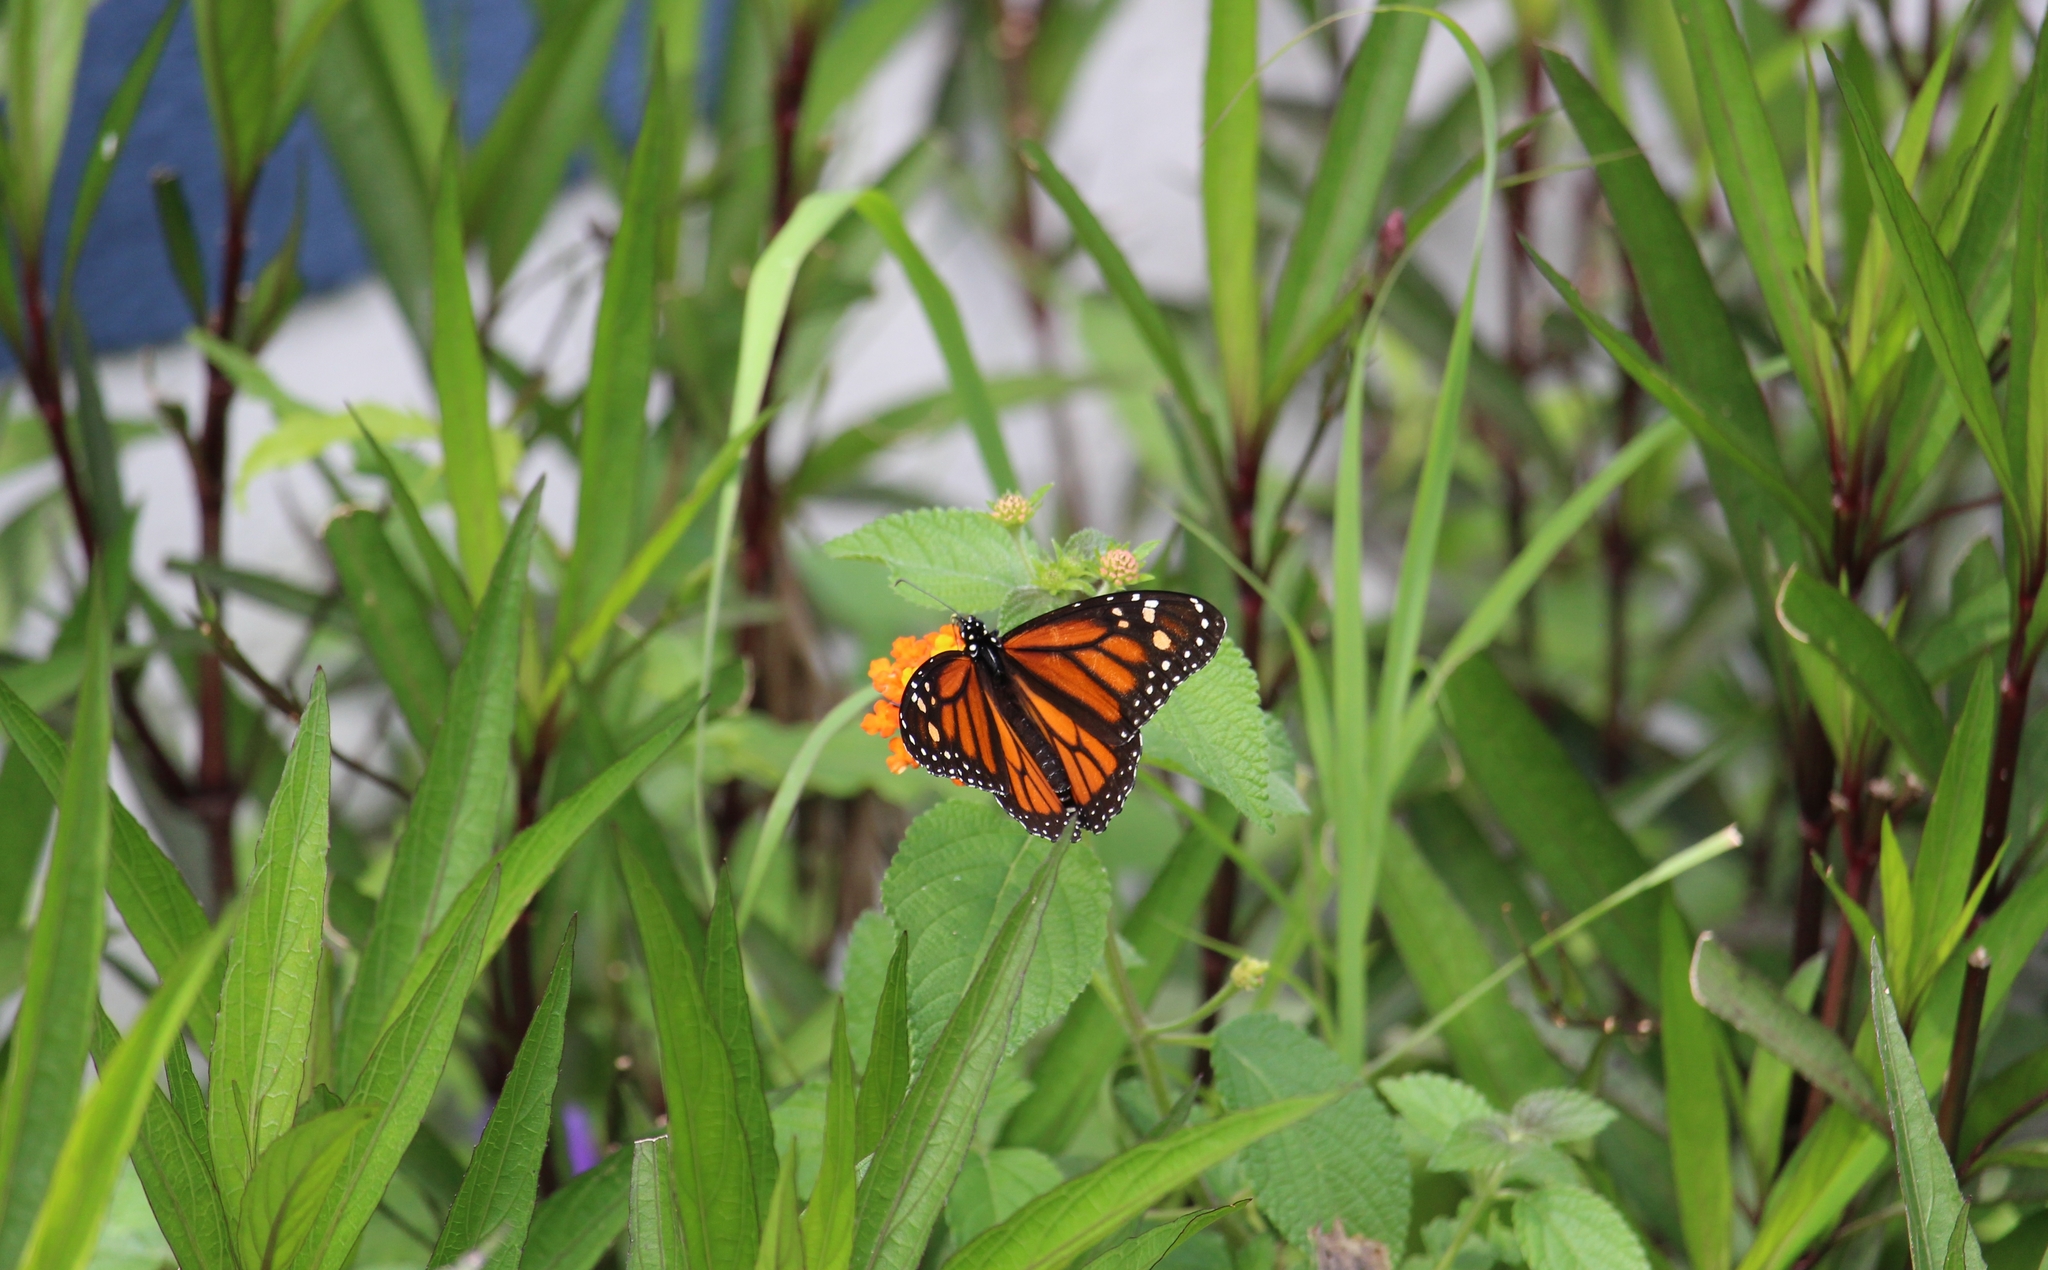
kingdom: Animalia
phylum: Arthropoda
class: Insecta
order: Lepidoptera
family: Nymphalidae
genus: Danaus
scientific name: Danaus plexippus
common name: Monarch
